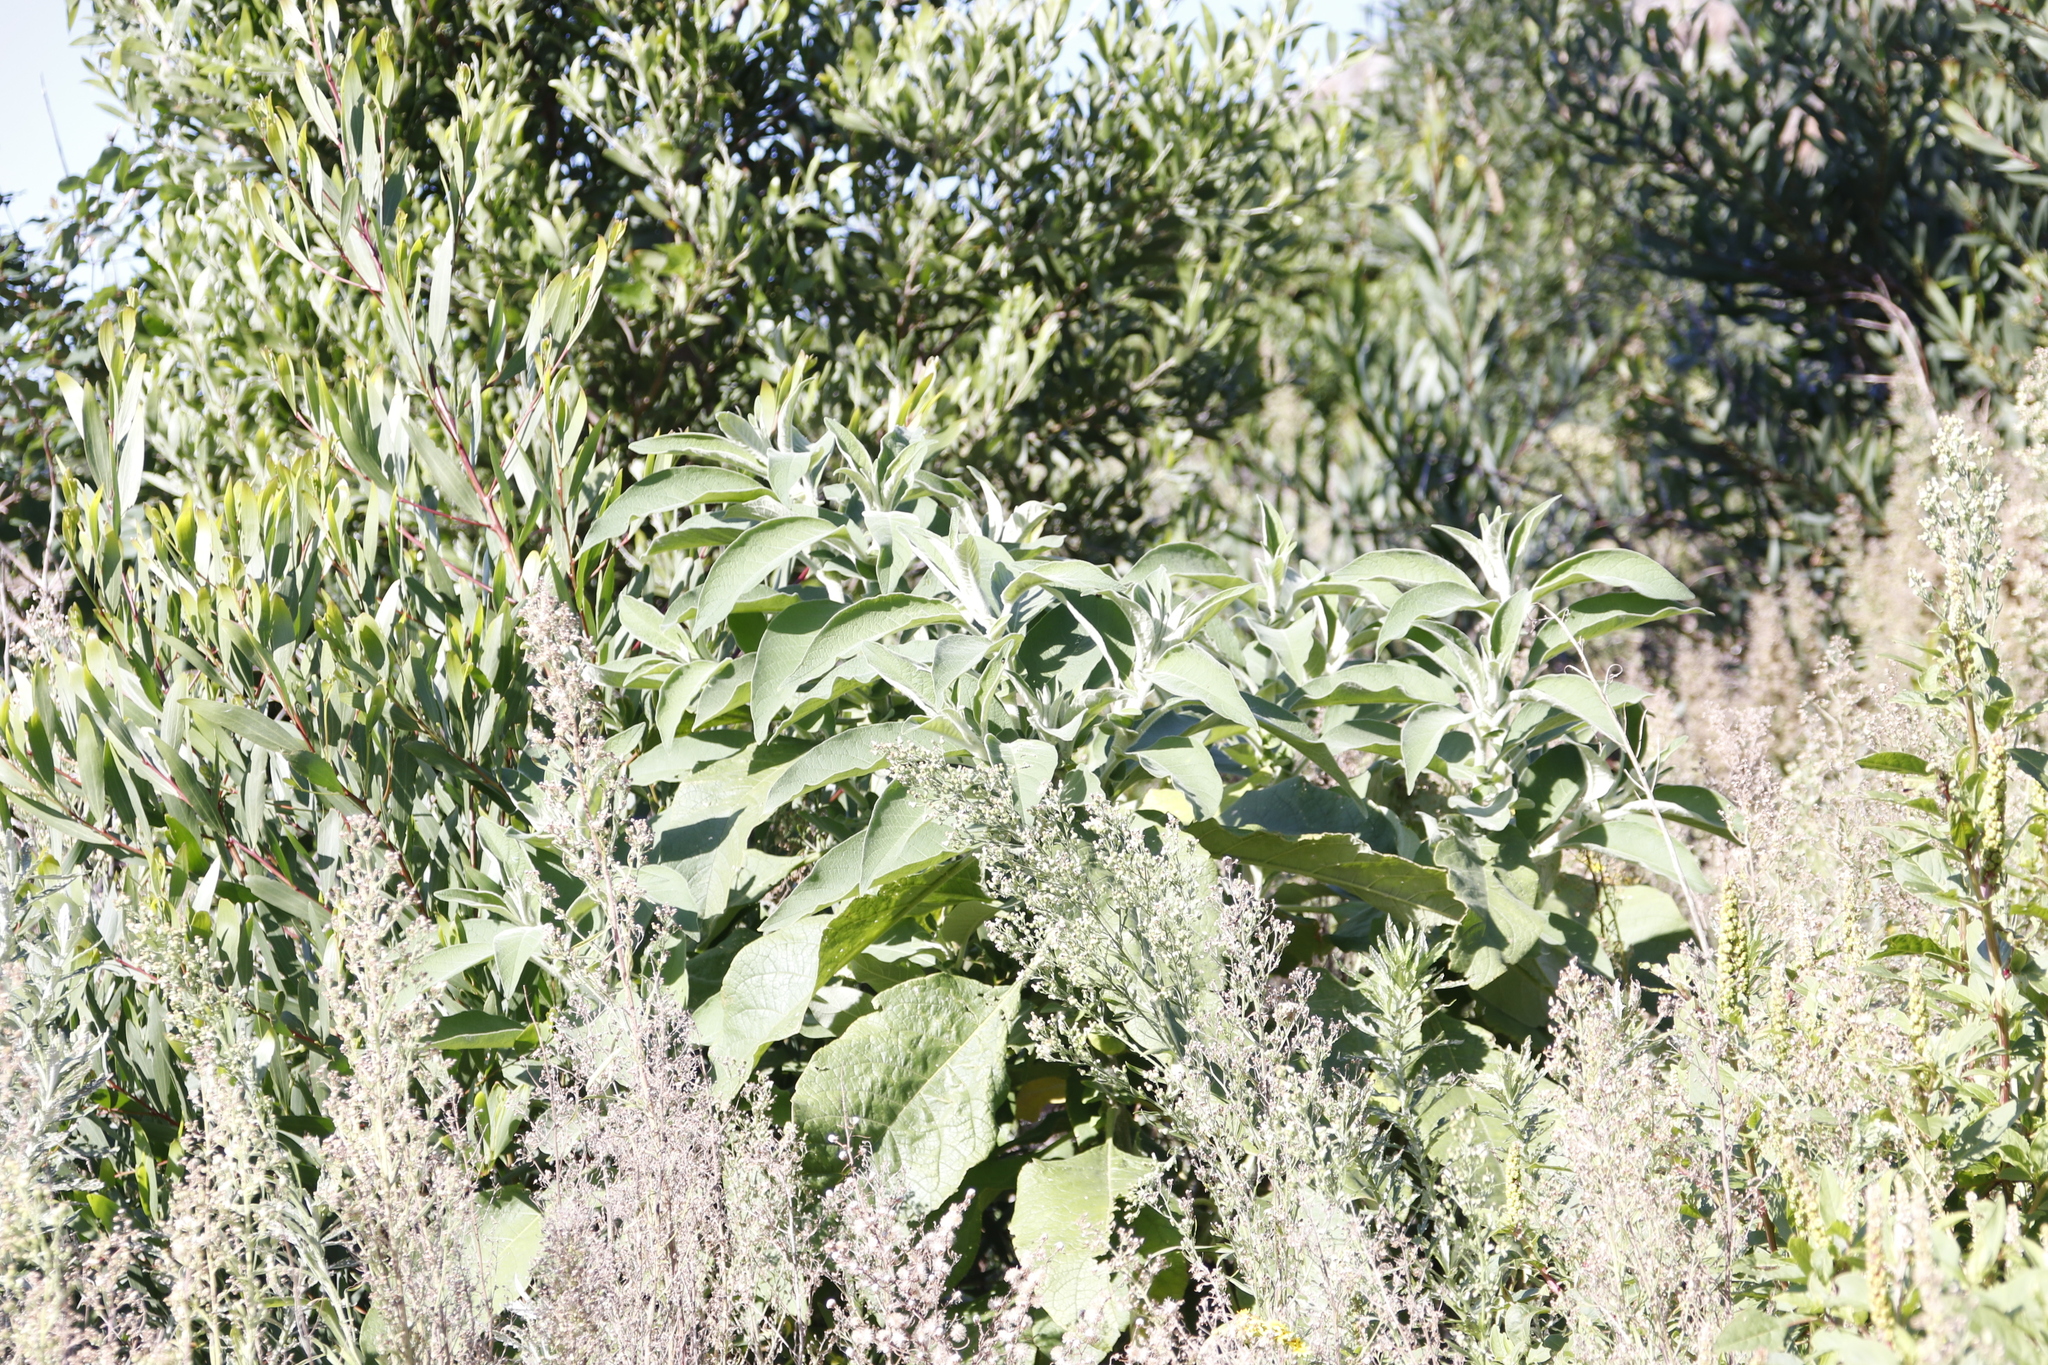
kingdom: Plantae
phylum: Tracheophyta
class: Magnoliopsida
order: Solanales
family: Solanaceae
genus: Solanum
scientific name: Solanum mauritianum
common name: Earleaf nightshade
